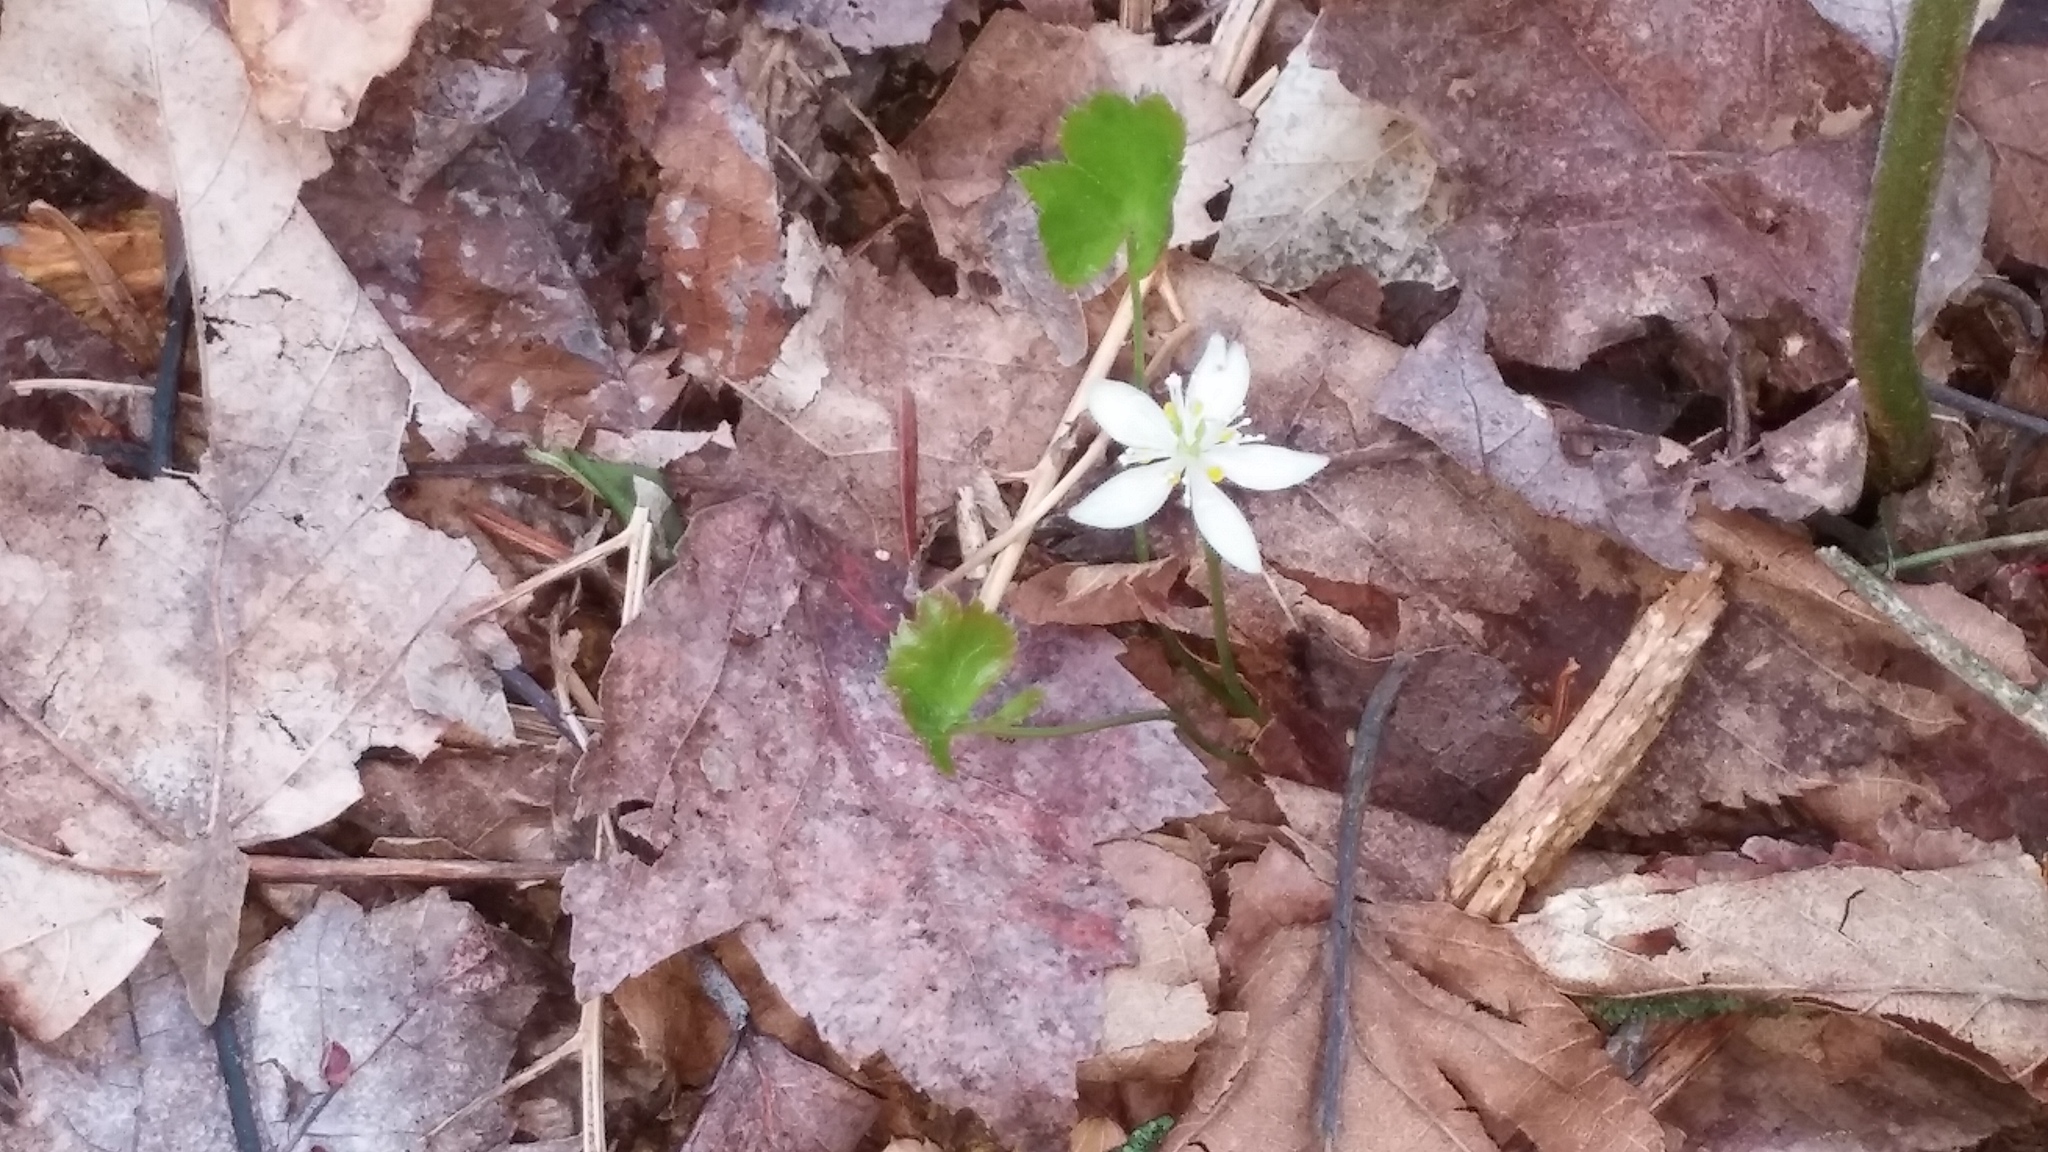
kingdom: Plantae
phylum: Tracheophyta
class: Magnoliopsida
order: Ranunculales
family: Ranunculaceae
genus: Coptis
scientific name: Coptis trifolia
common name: Canker-root
